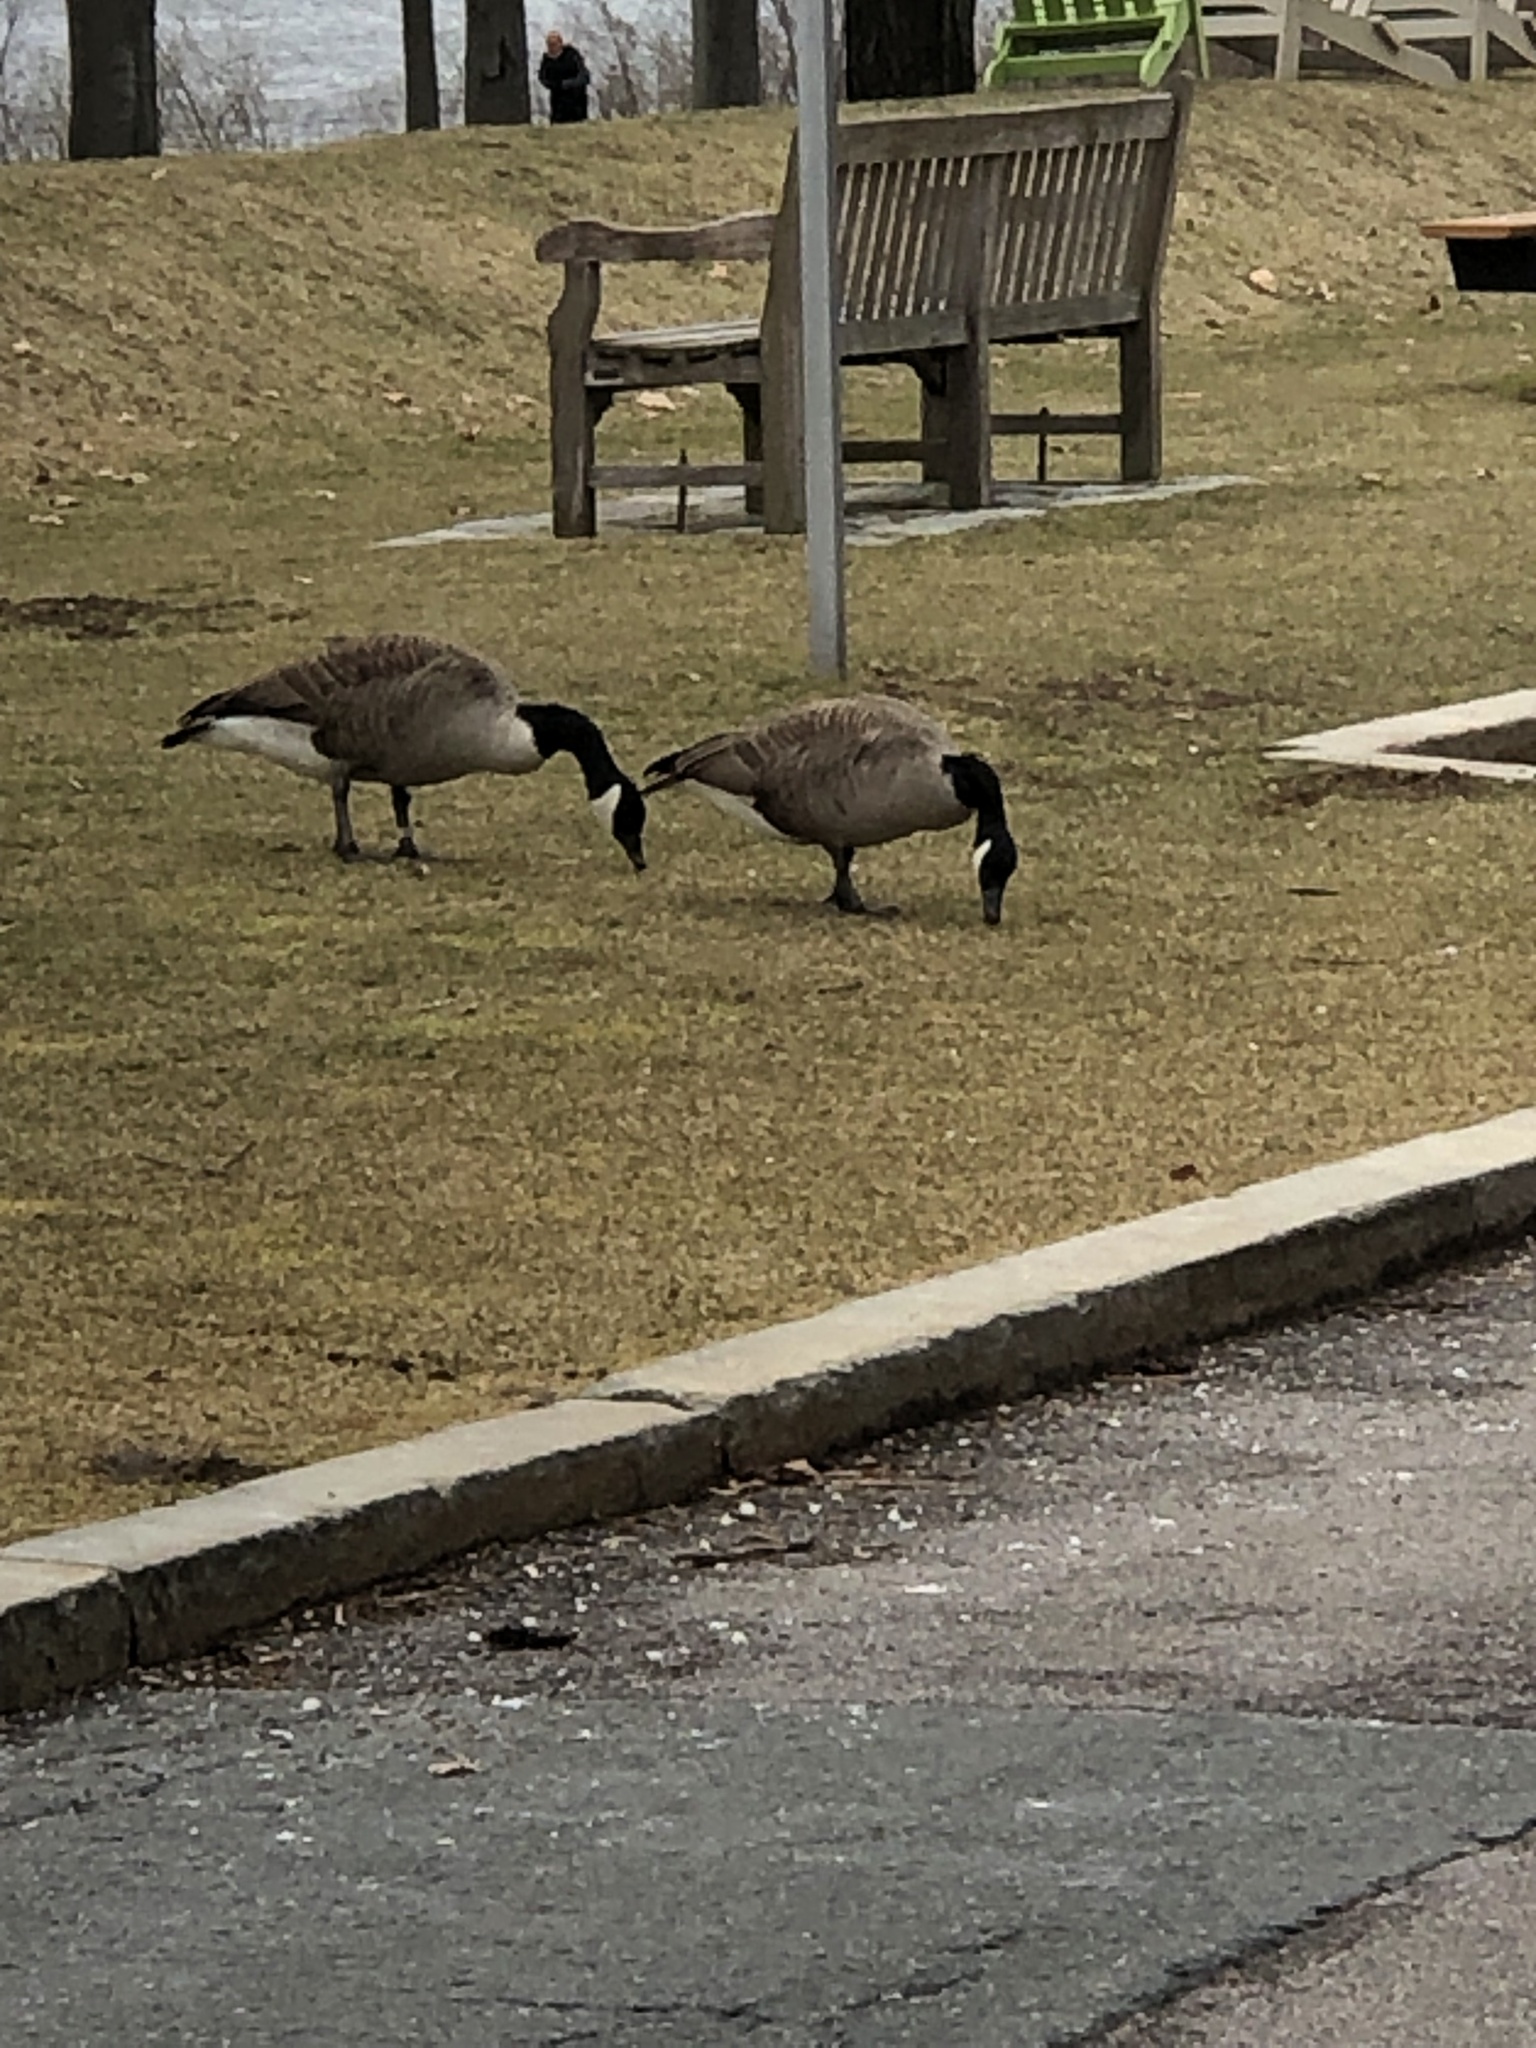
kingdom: Animalia
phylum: Chordata
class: Aves
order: Anseriformes
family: Anatidae
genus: Branta
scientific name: Branta canadensis
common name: Canada goose
